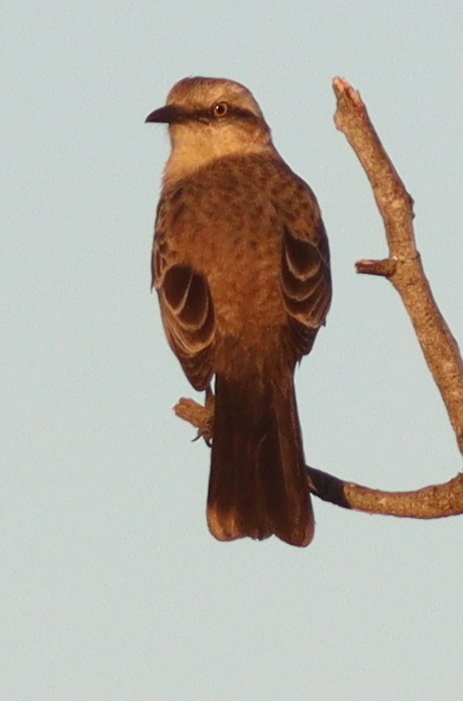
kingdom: Animalia
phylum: Chordata
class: Aves
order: Passeriformes
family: Mimidae
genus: Mimus
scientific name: Mimus saturninus
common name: Chalk-browed mockingbird
